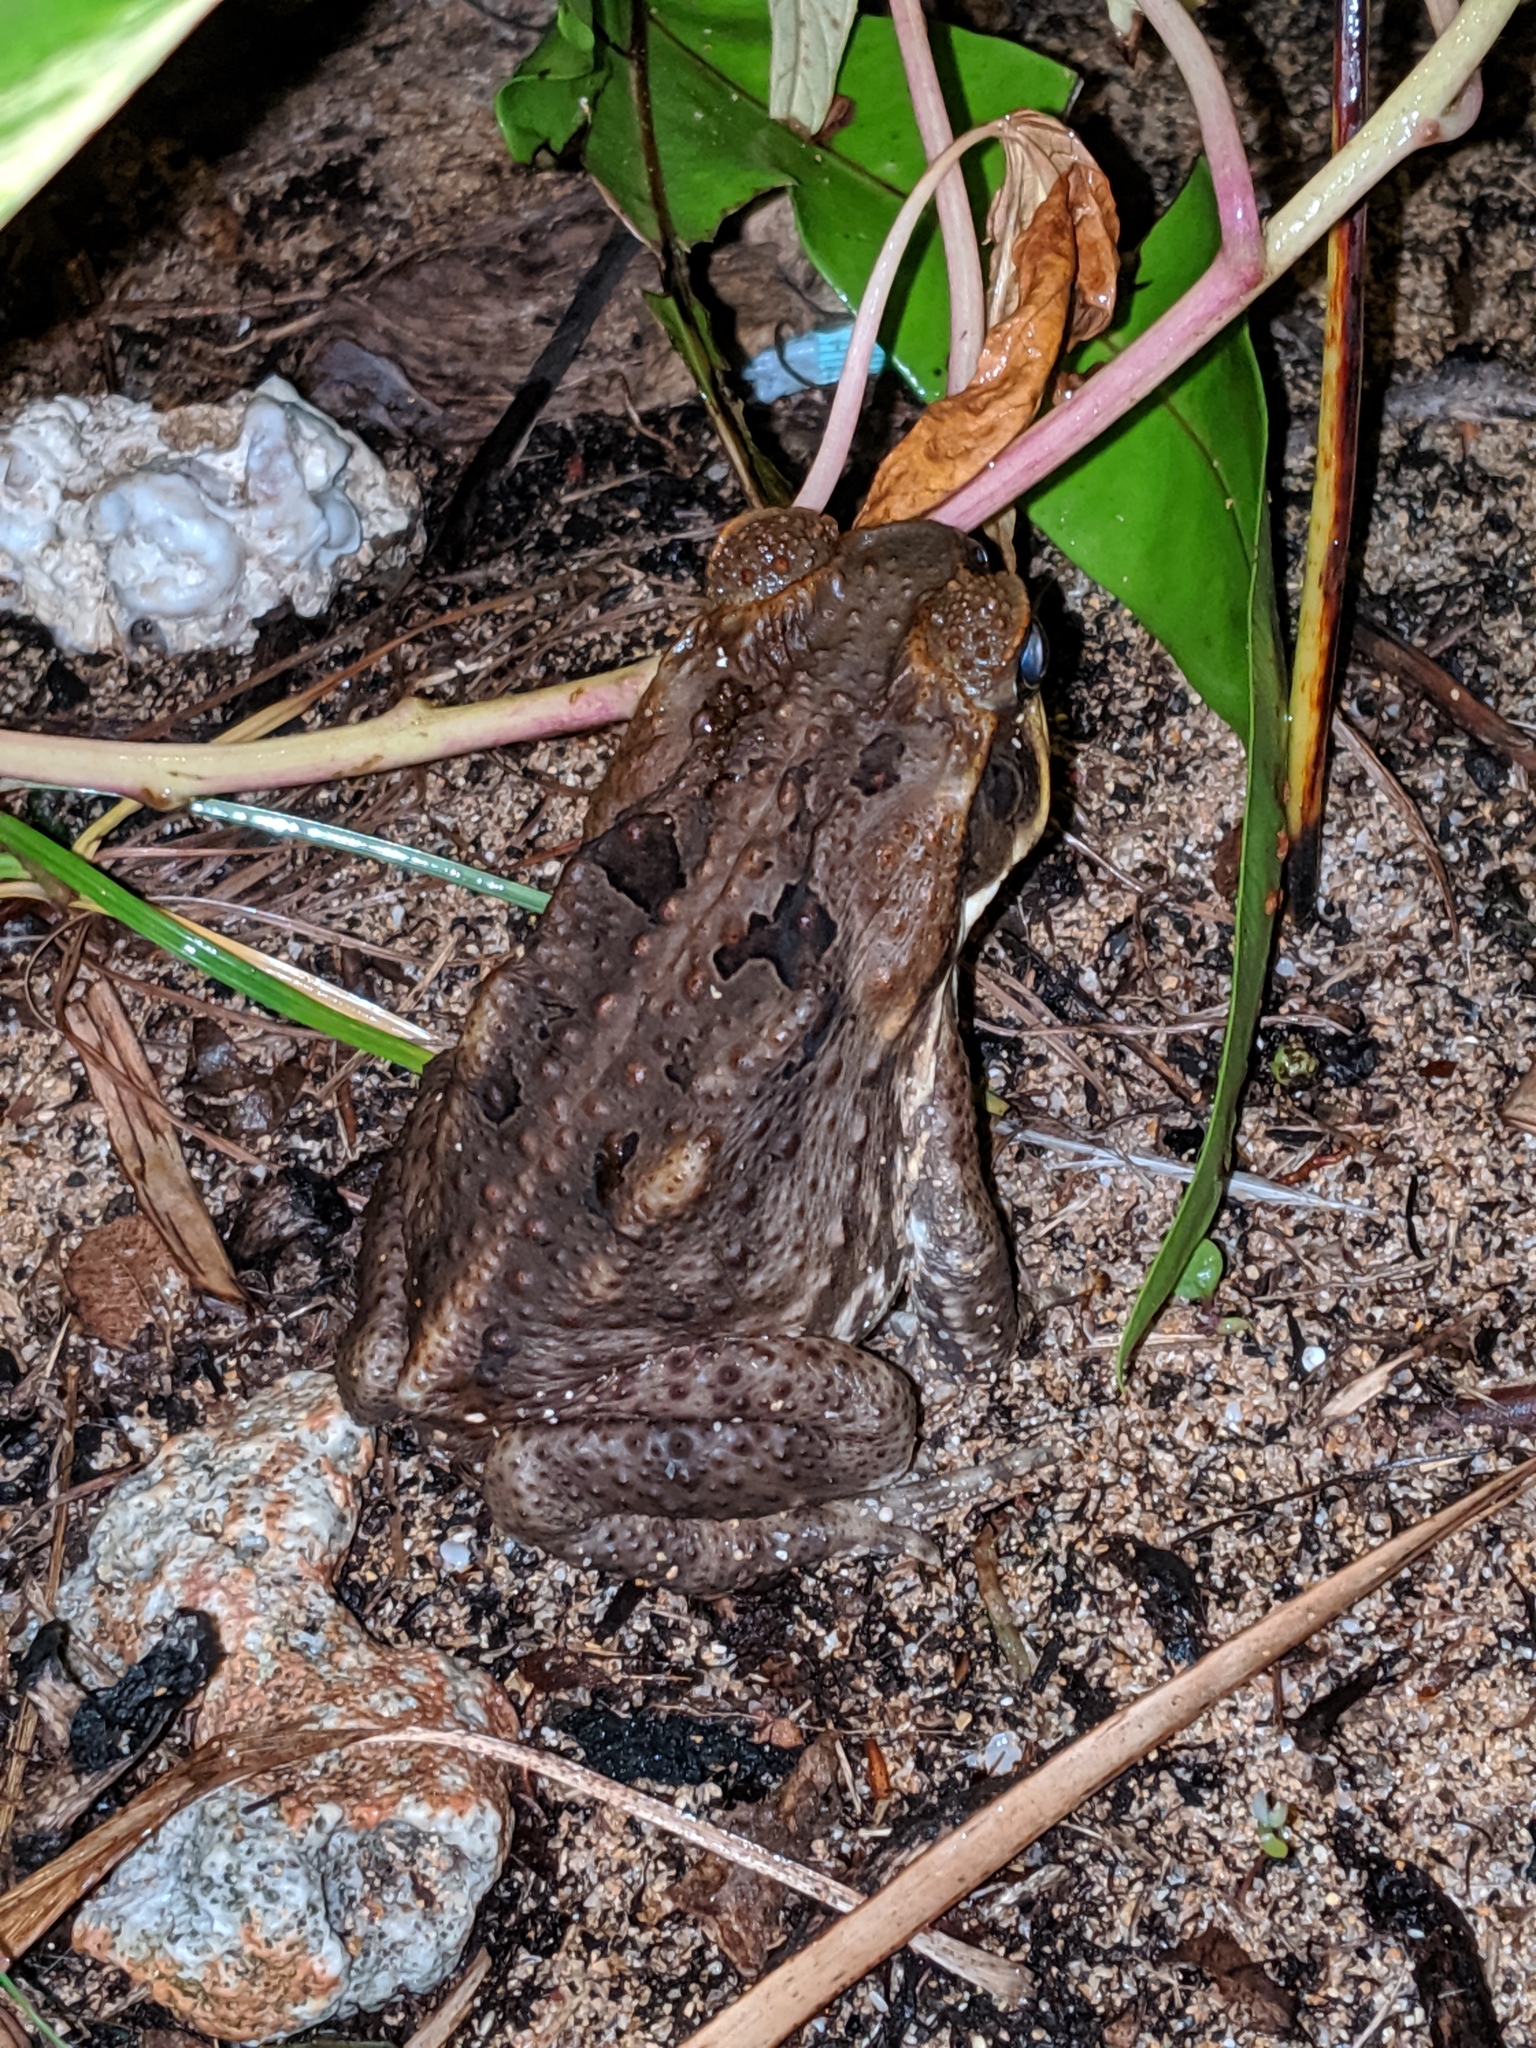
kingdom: Animalia
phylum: Chordata
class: Amphibia
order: Anura
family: Bufonidae
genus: Rhinella
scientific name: Rhinella marina
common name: Cane toad
